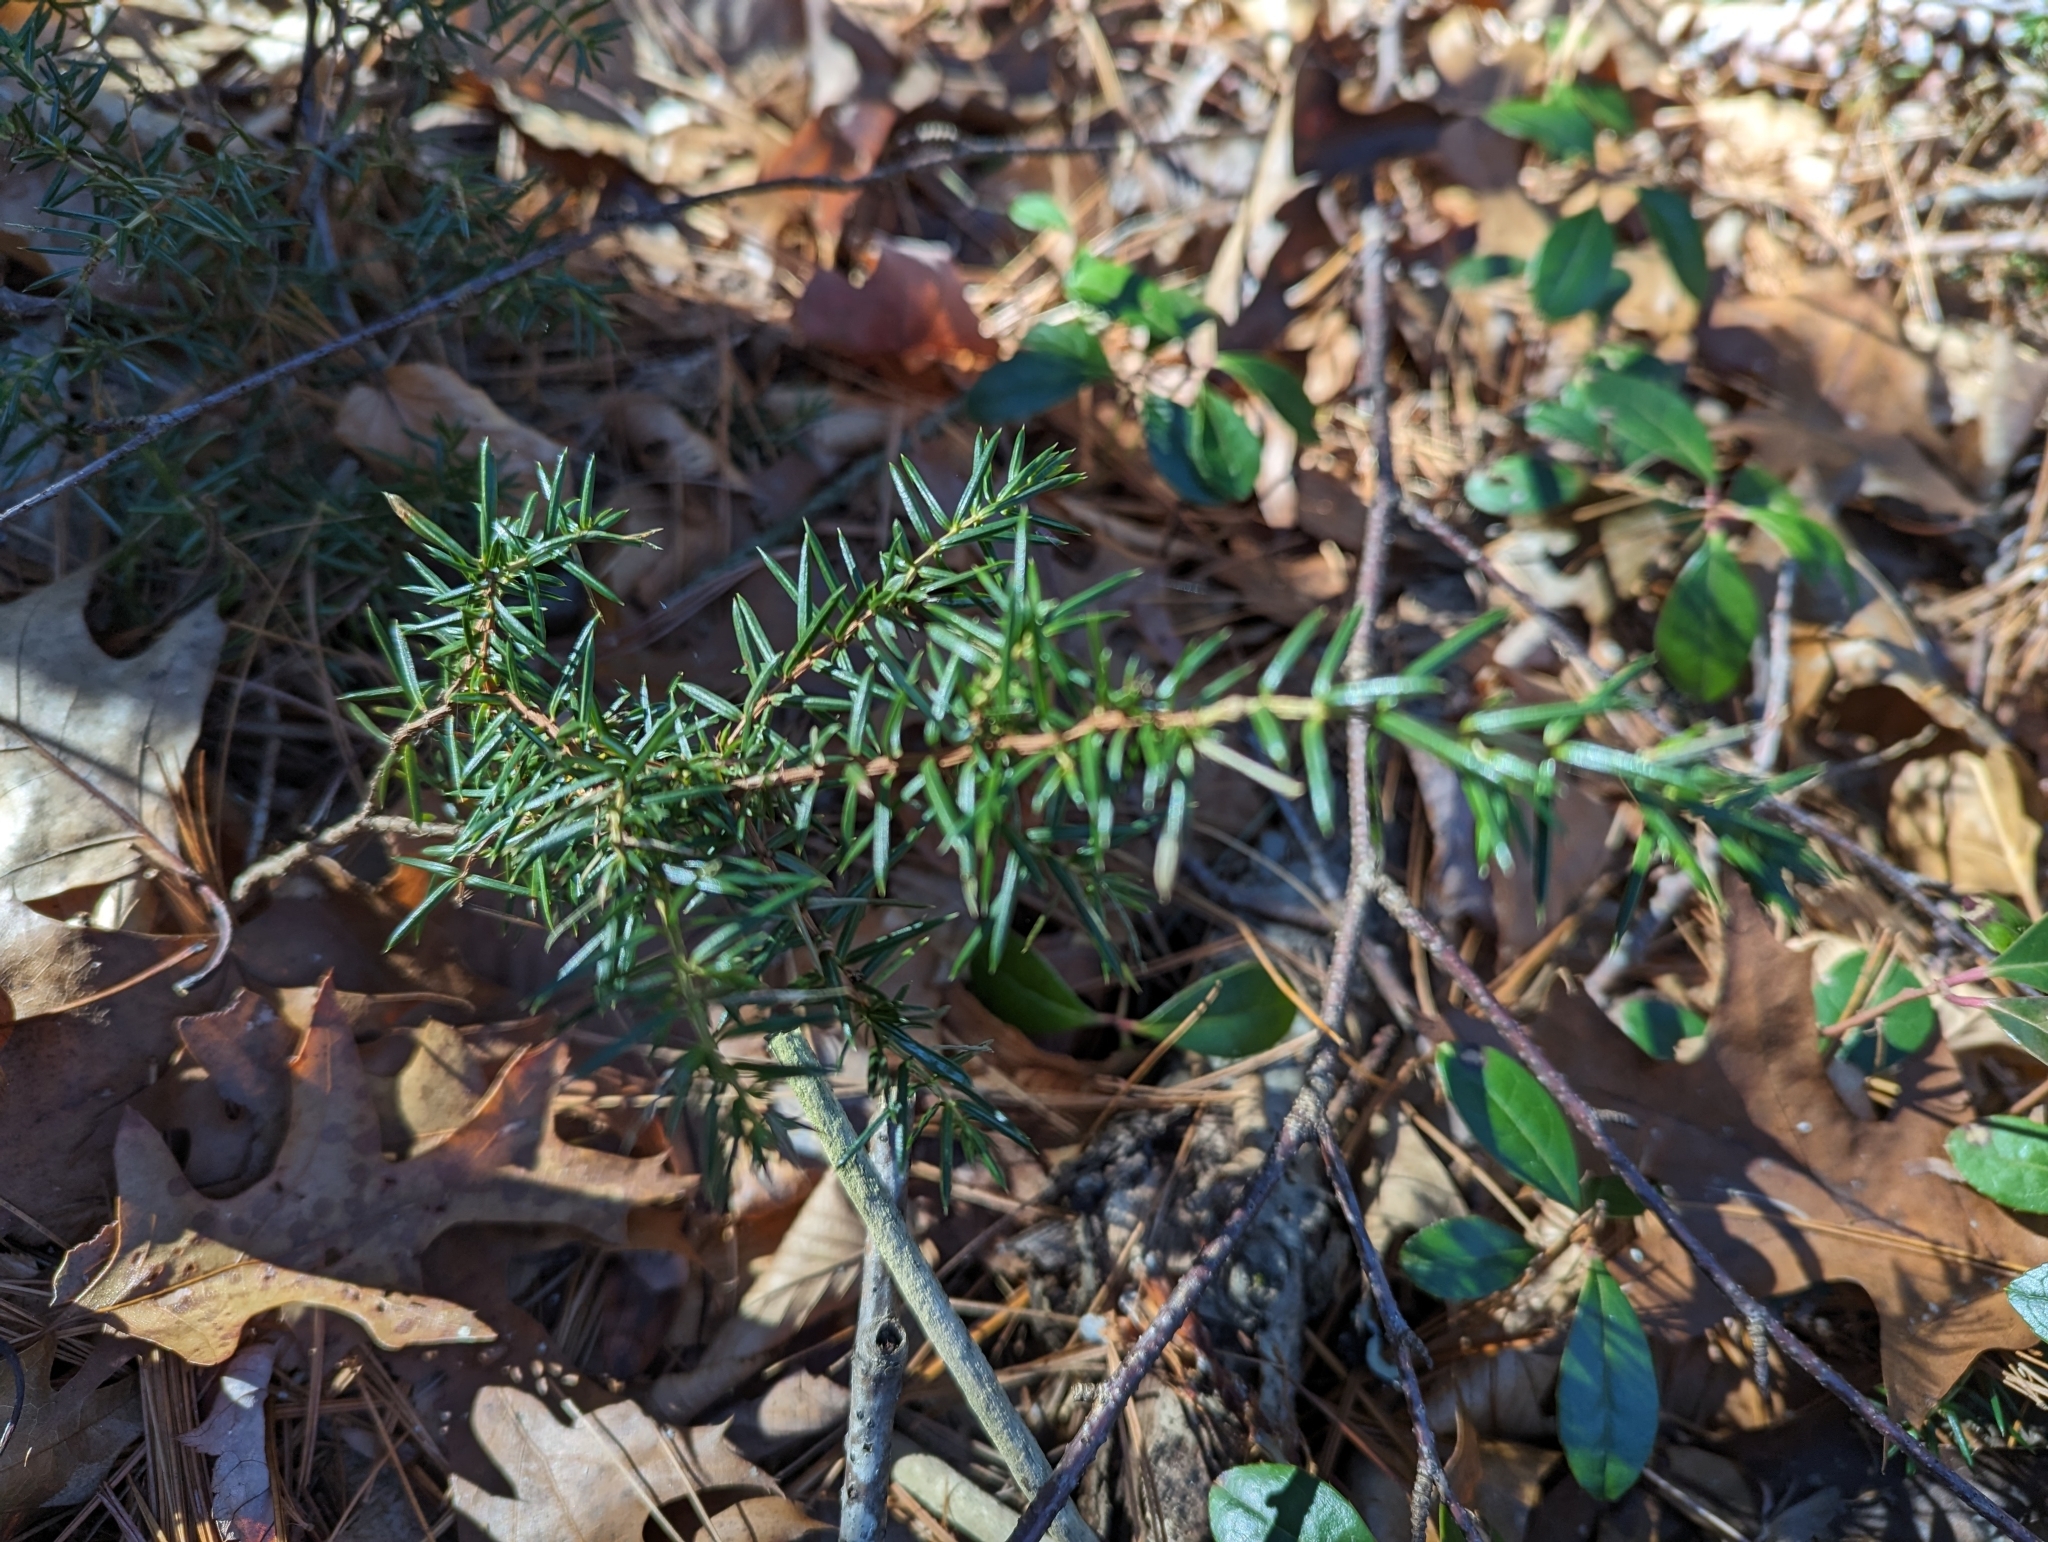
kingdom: Plantae
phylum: Tracheophyta
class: Pinopsida
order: Pinales
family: Cupressaceae
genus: Juniperus
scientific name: Juniperus communis
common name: Common juniper
